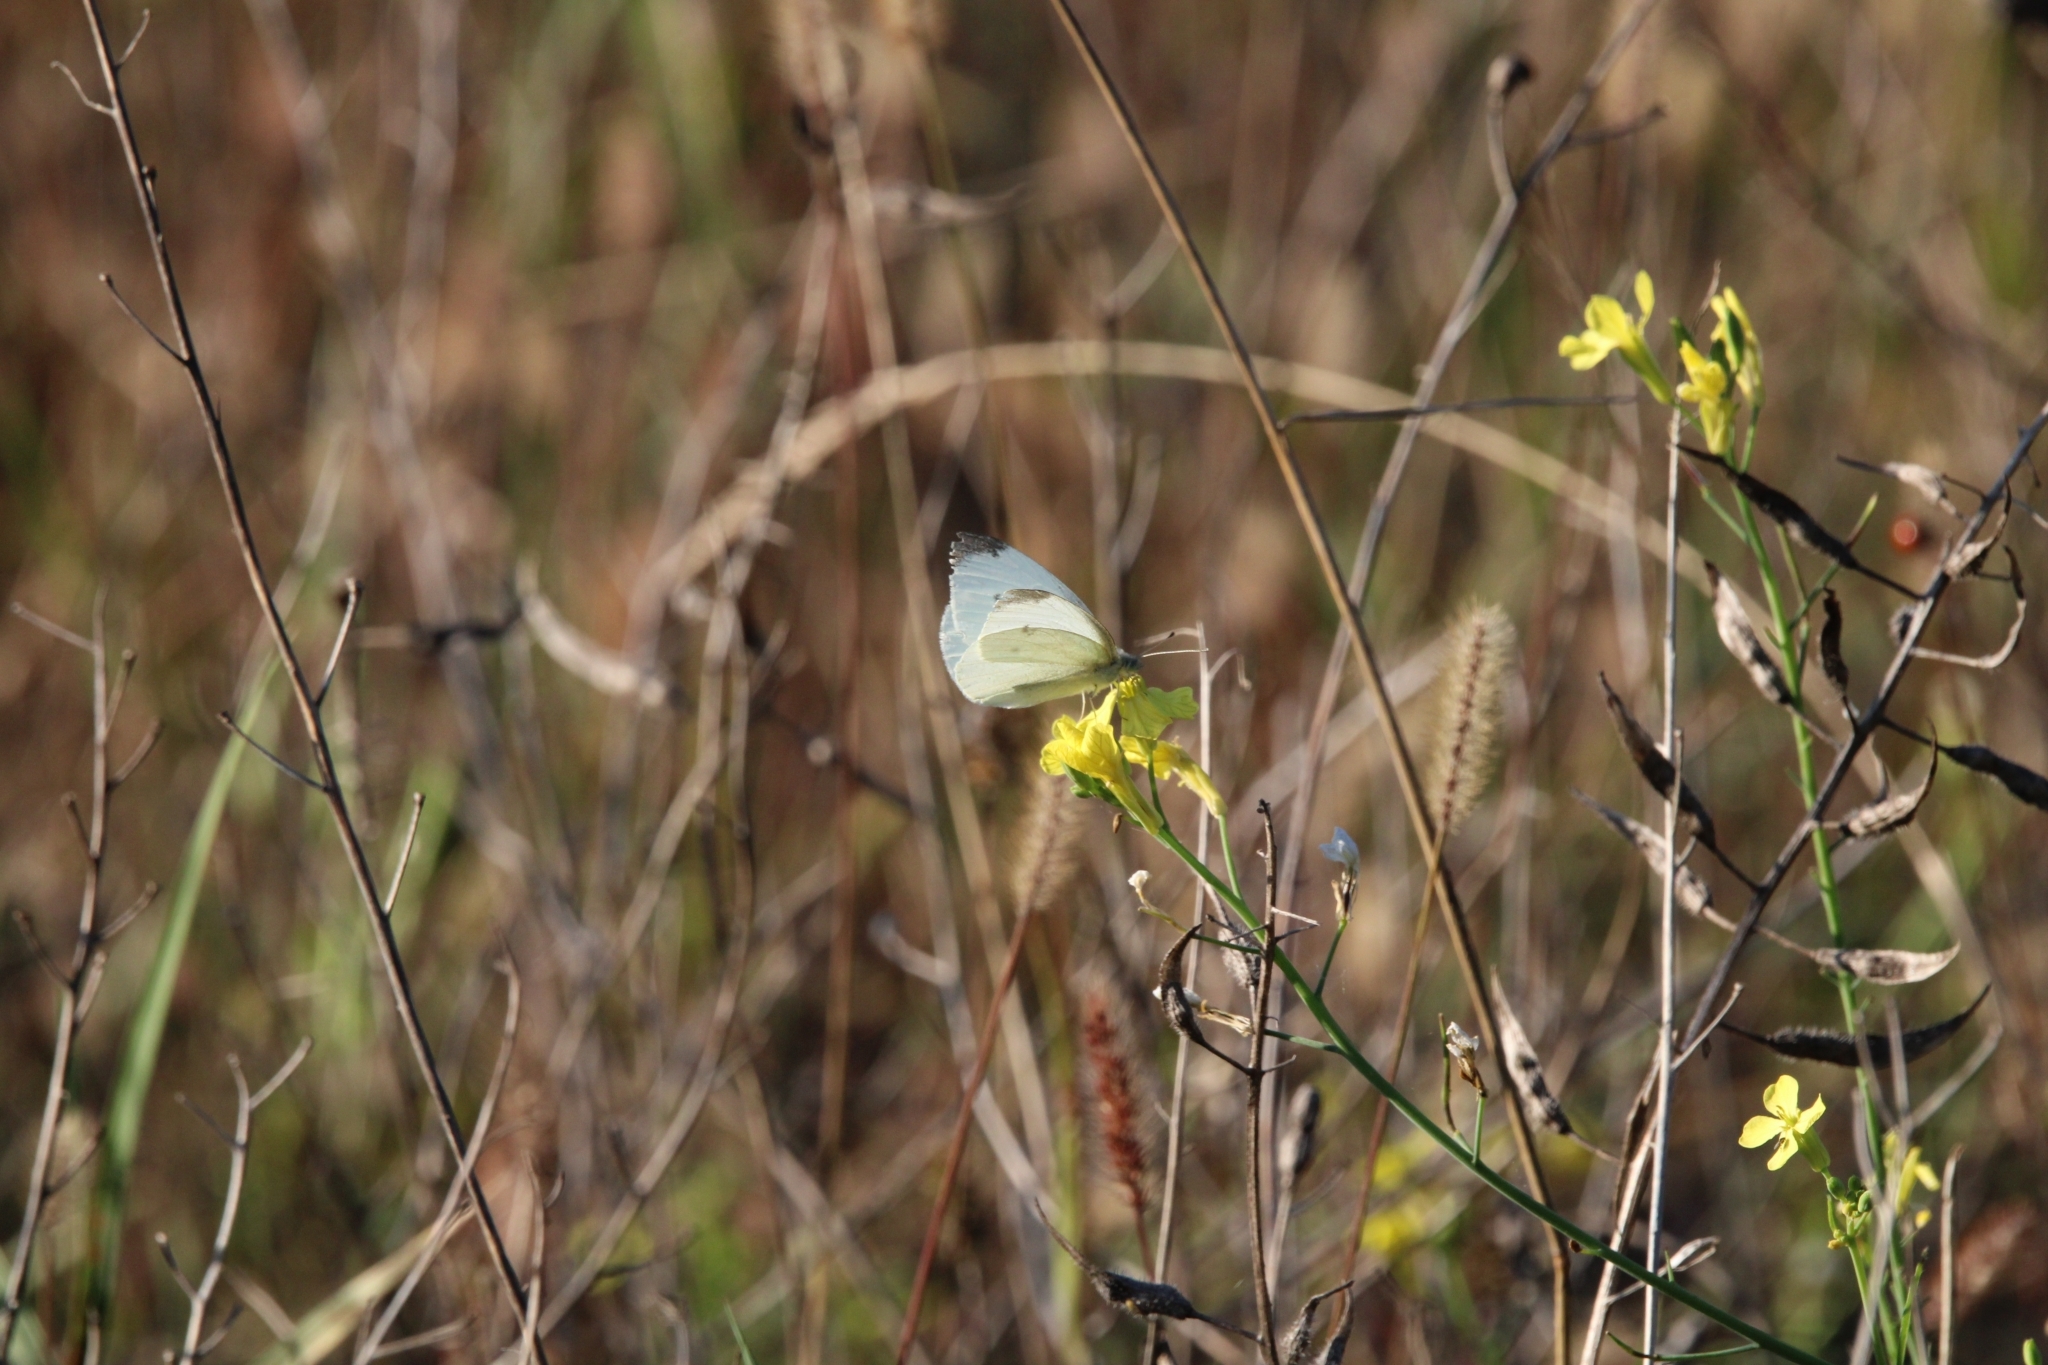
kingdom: Animalia
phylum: Arthropoda
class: Insecta
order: Lepidoptera
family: Pieridae
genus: Pieris
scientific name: Pieris rapae
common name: Small white
